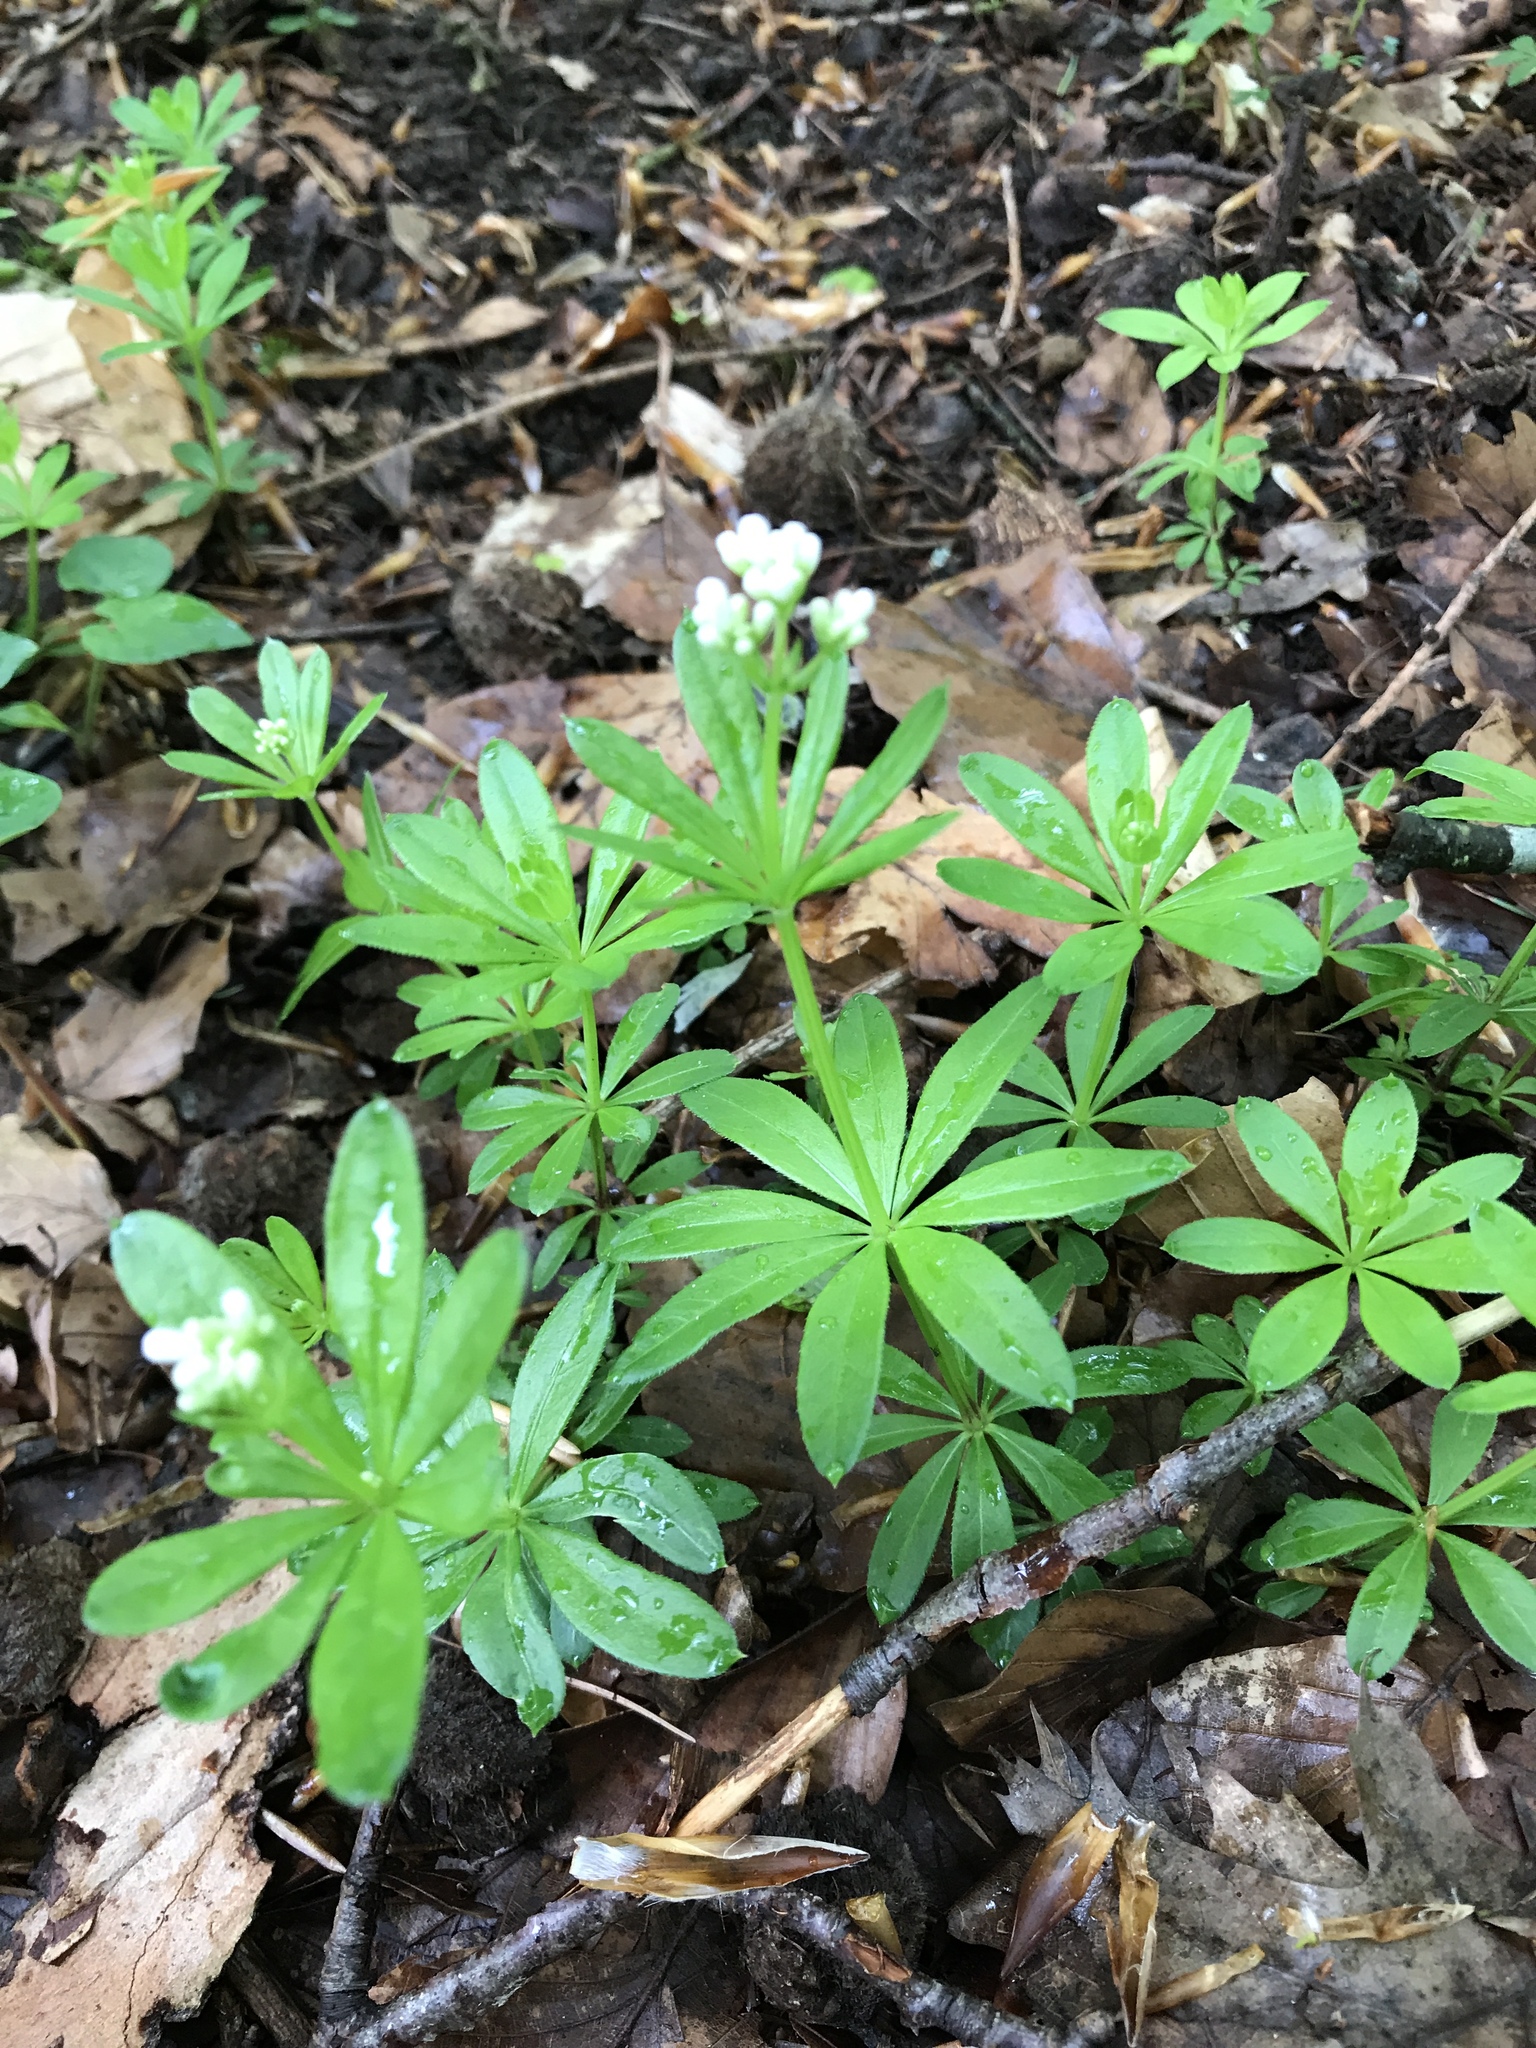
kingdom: Plantae
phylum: Tracheophyta
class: Magnoliopsida
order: Gentianales
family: Rubiaceae
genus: Galium
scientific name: Galium odoratum
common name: Sweet woodruff
